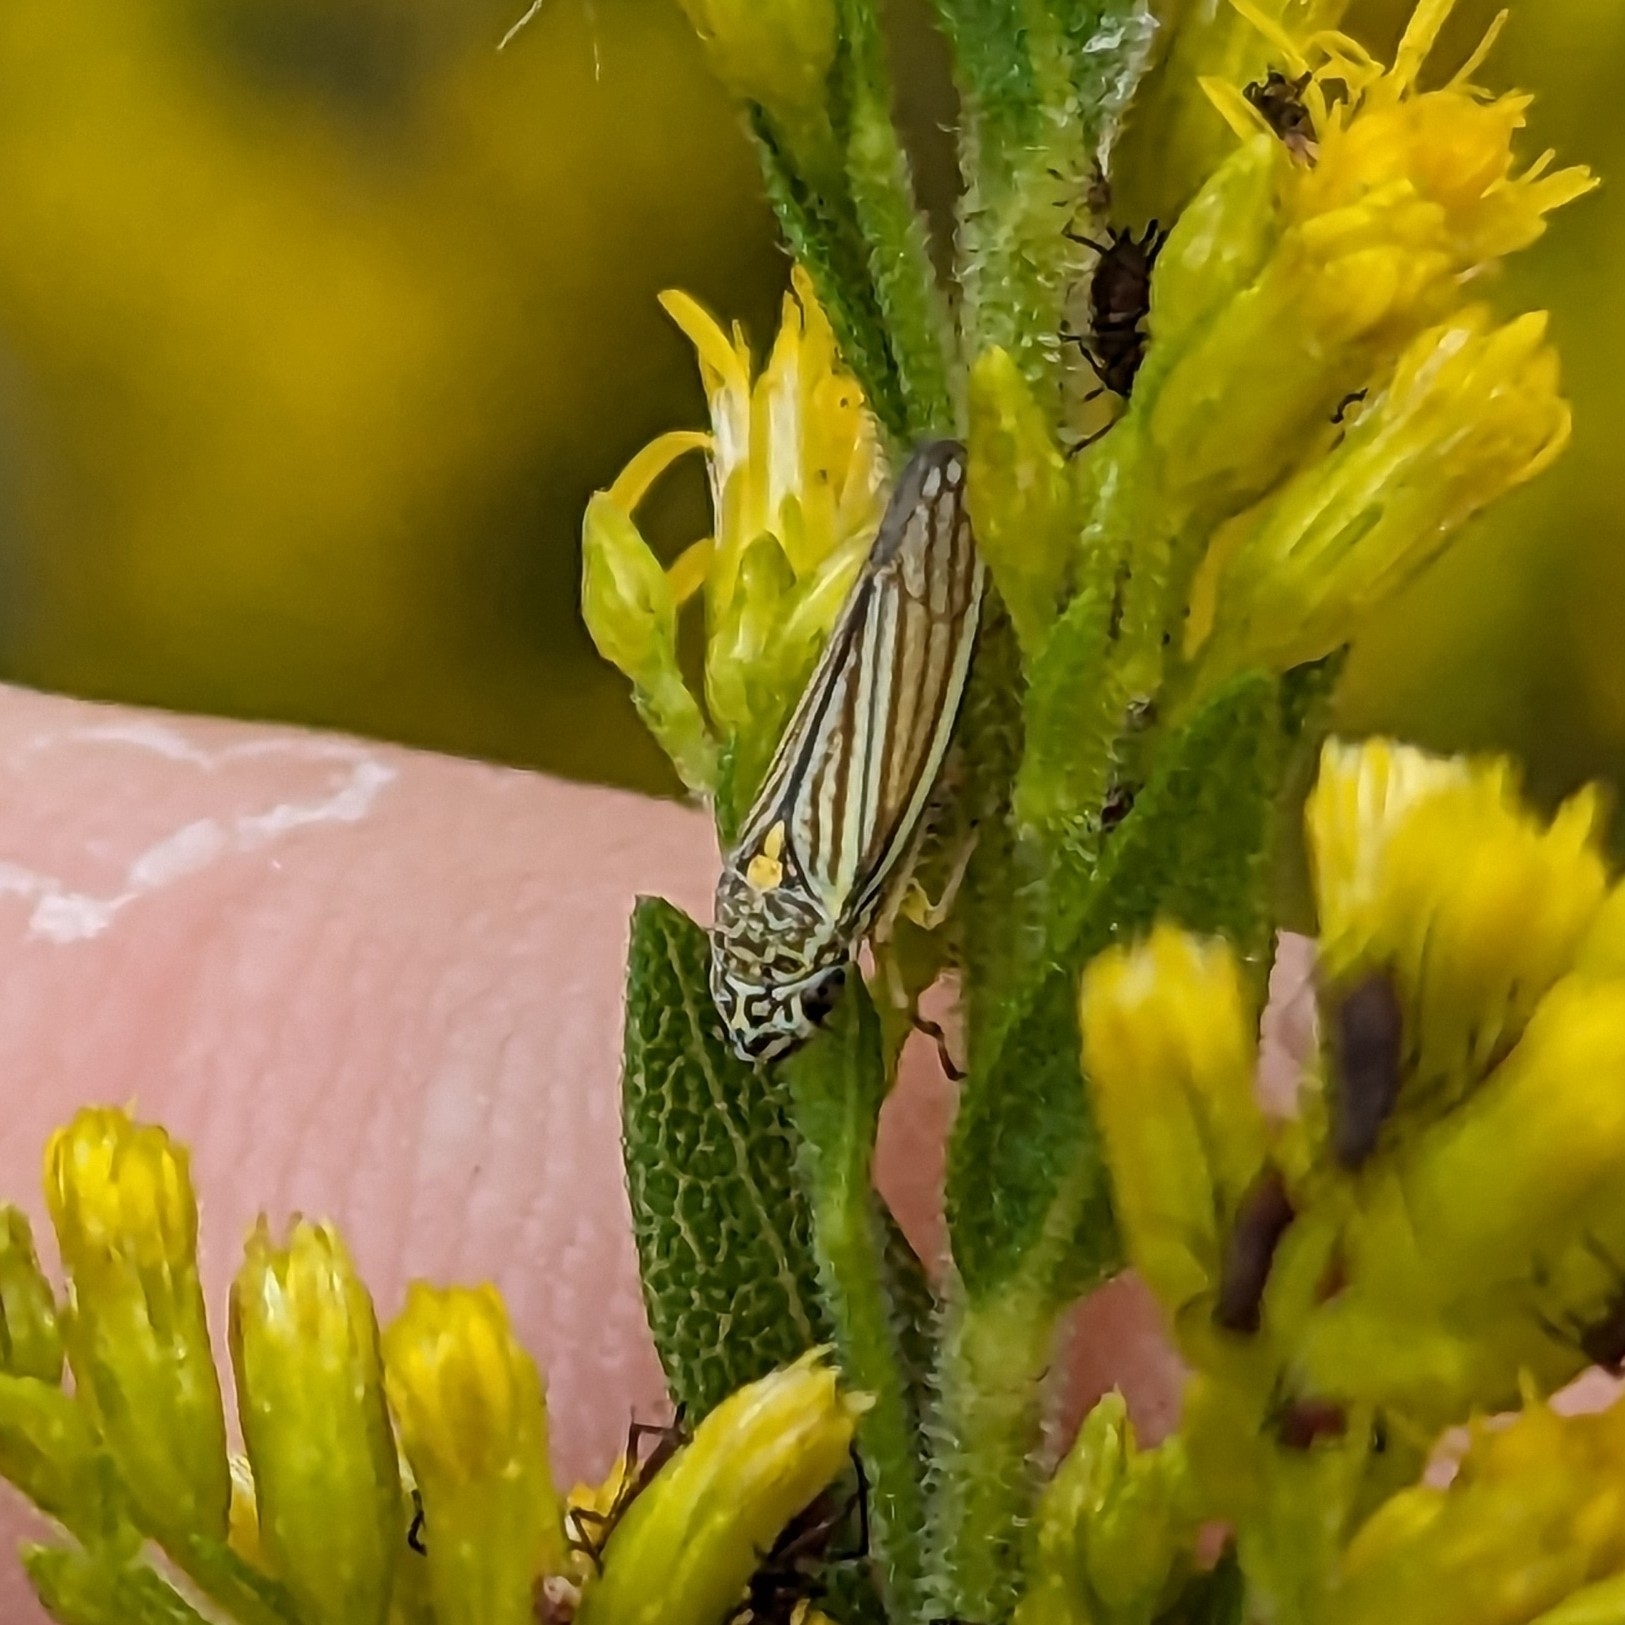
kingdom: Animalia
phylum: Arthropoda
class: Insecta
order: Hemiptera
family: Cicadellidae
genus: Neokolla
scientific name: Neokolla hieroglyphica
